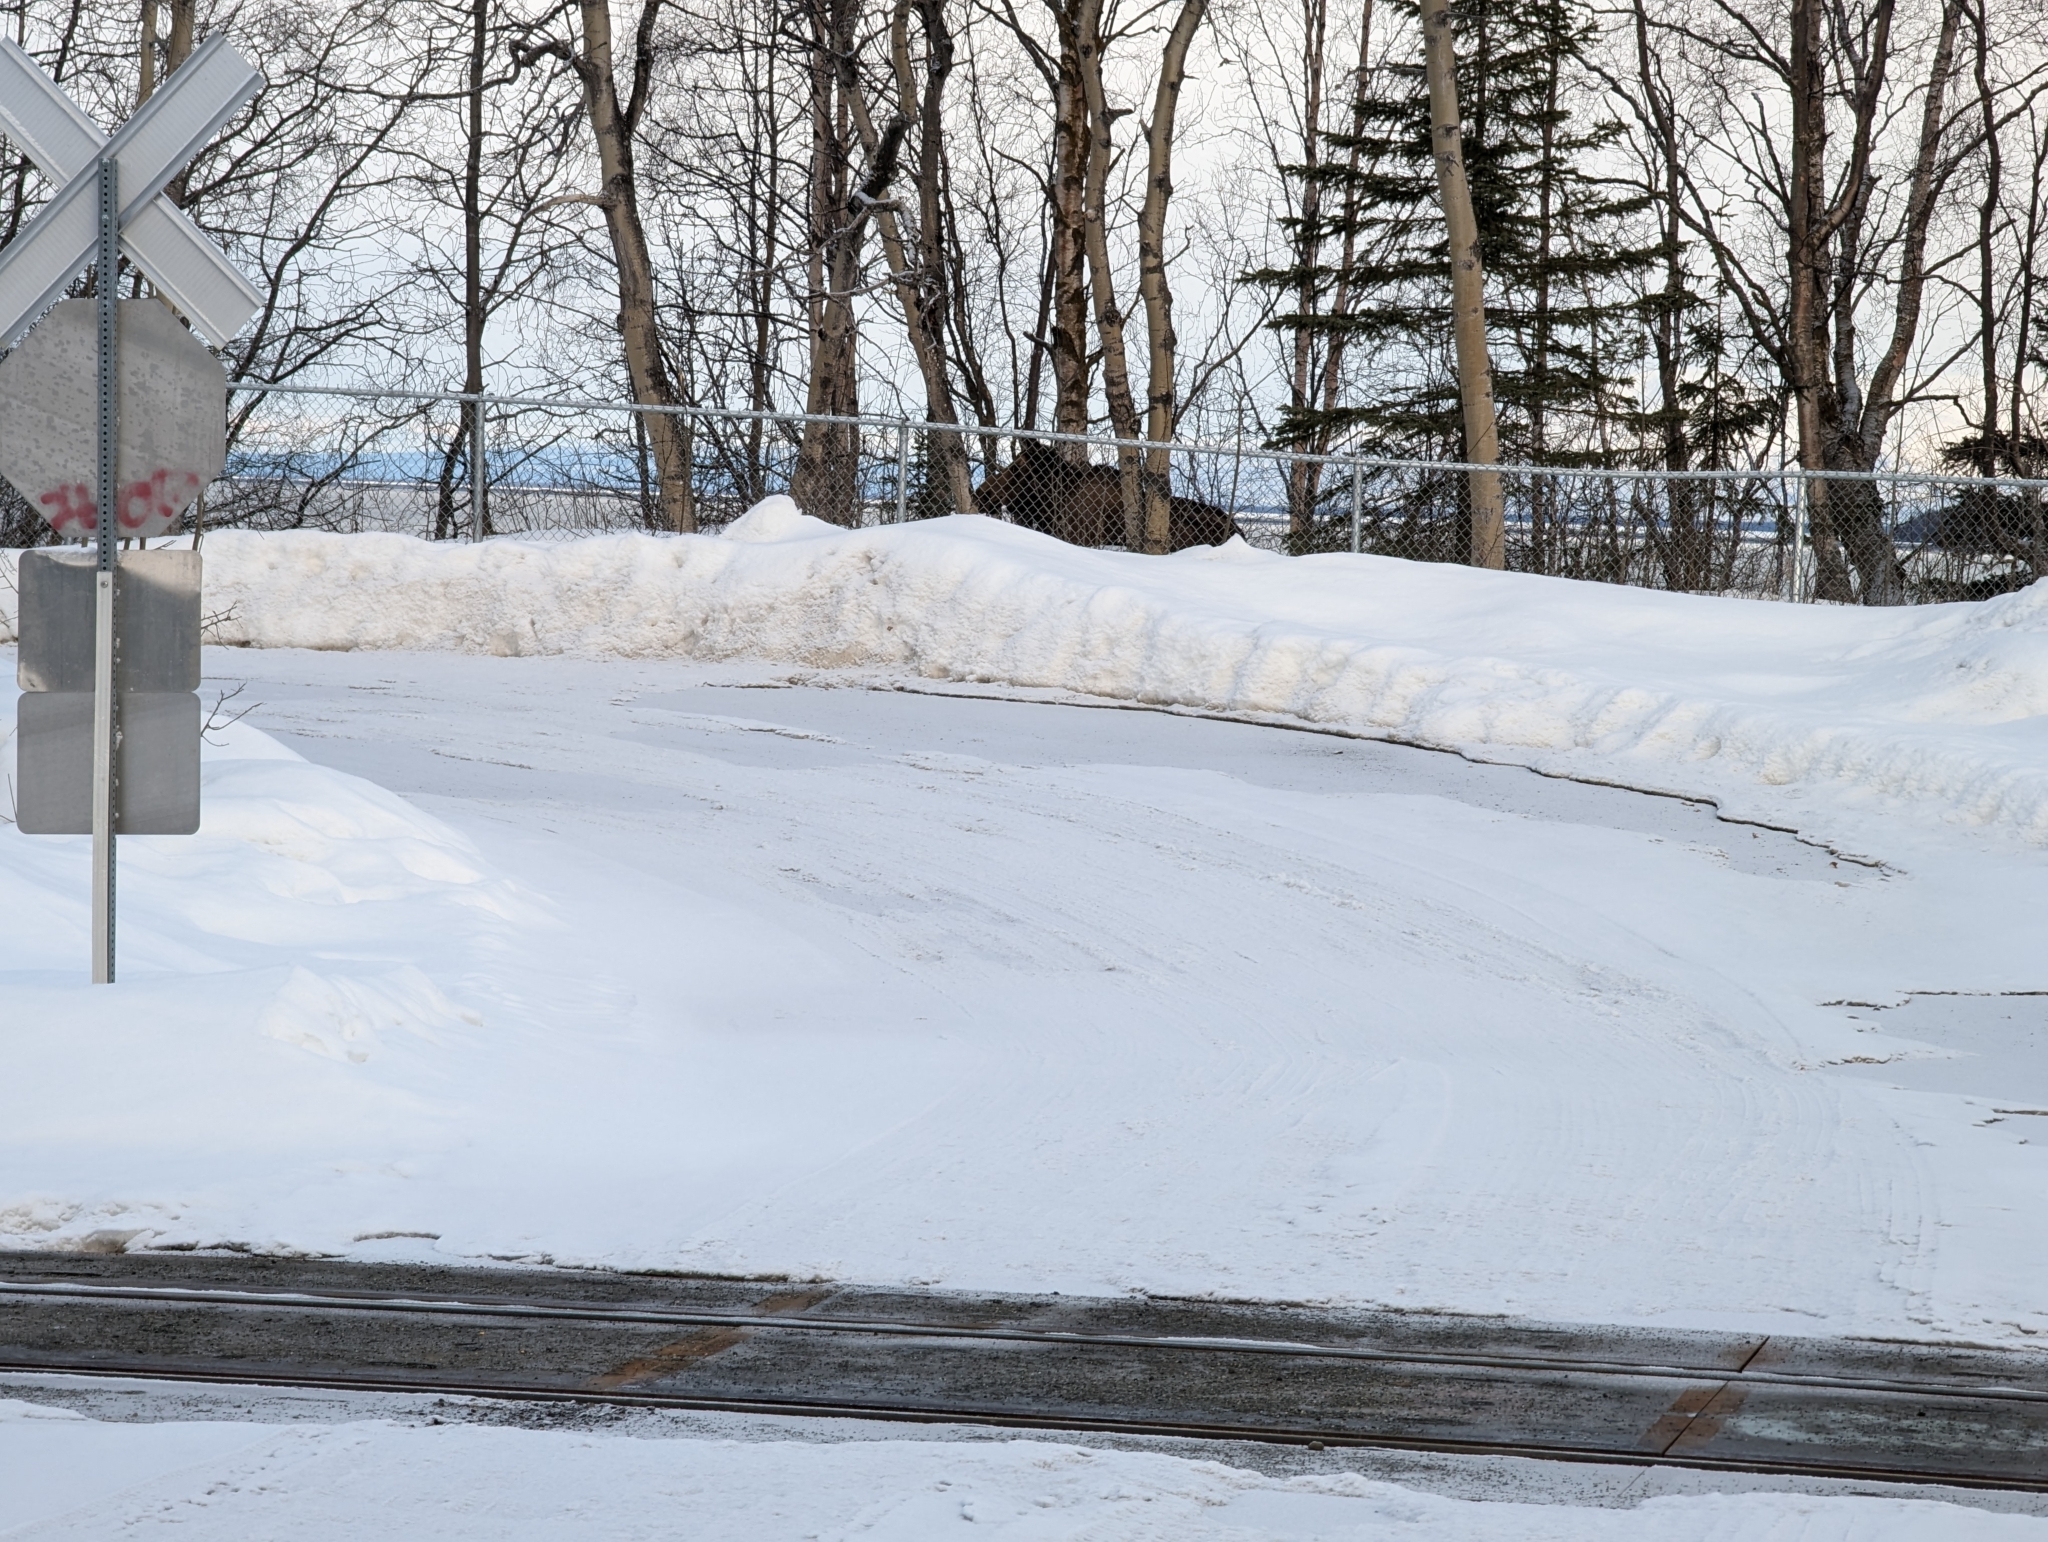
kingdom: Animalia
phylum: Chordata
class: Mammalia
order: Artiodactyla
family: Cervidae
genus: Alces
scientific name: Alces alces
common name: Moose
